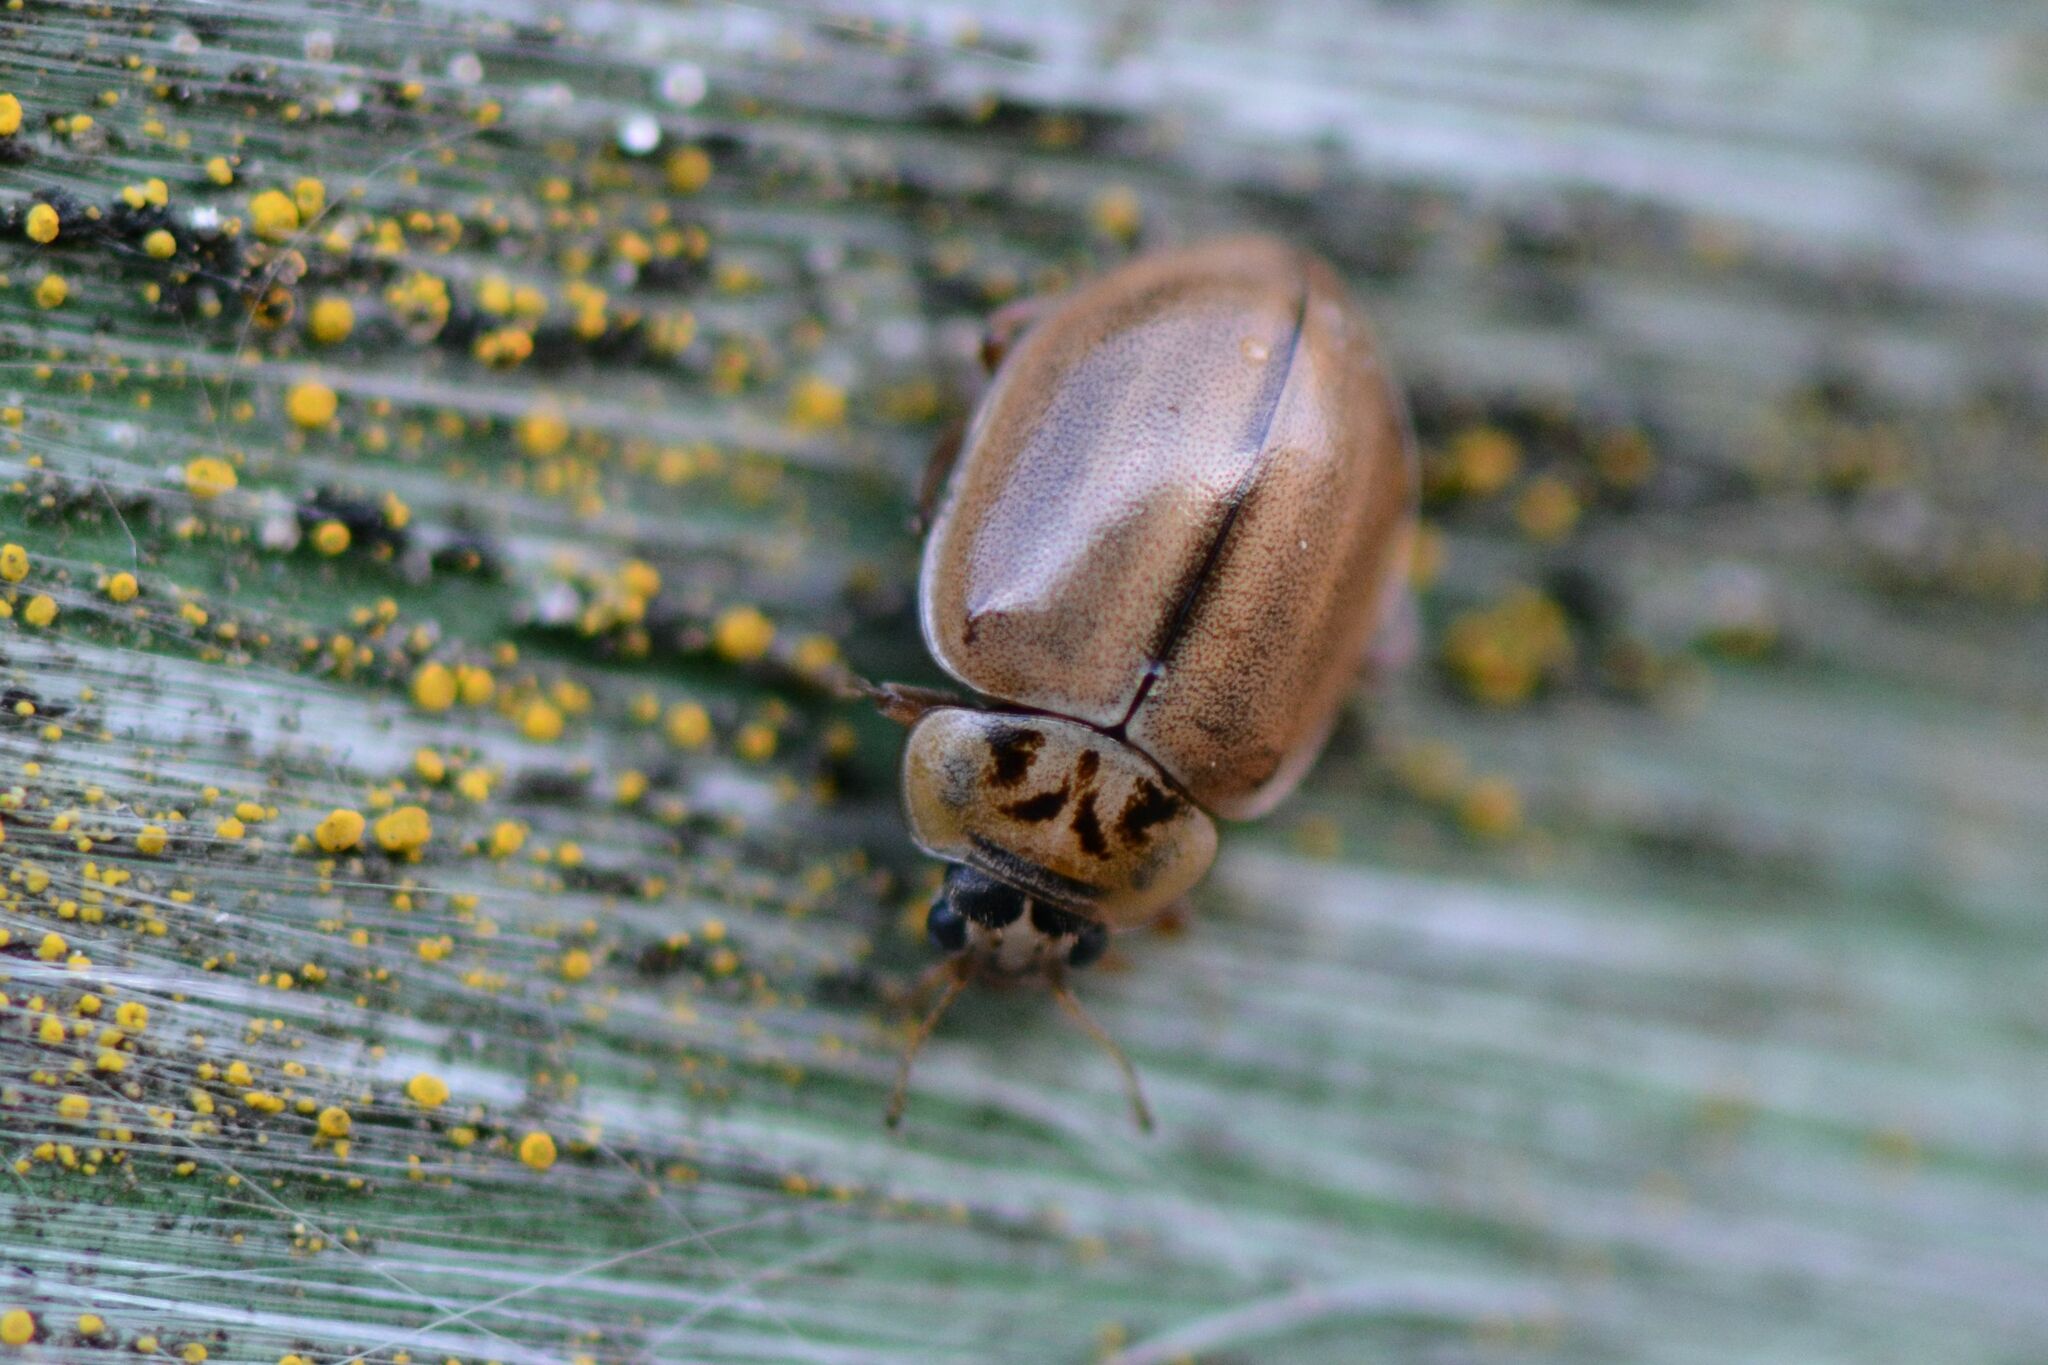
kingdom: Animalia
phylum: Arthropoda
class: Insecta
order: Coleoptera
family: Coccinellidae
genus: Aphidecta
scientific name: Aphidecta obliterata
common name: Larch ladybird
